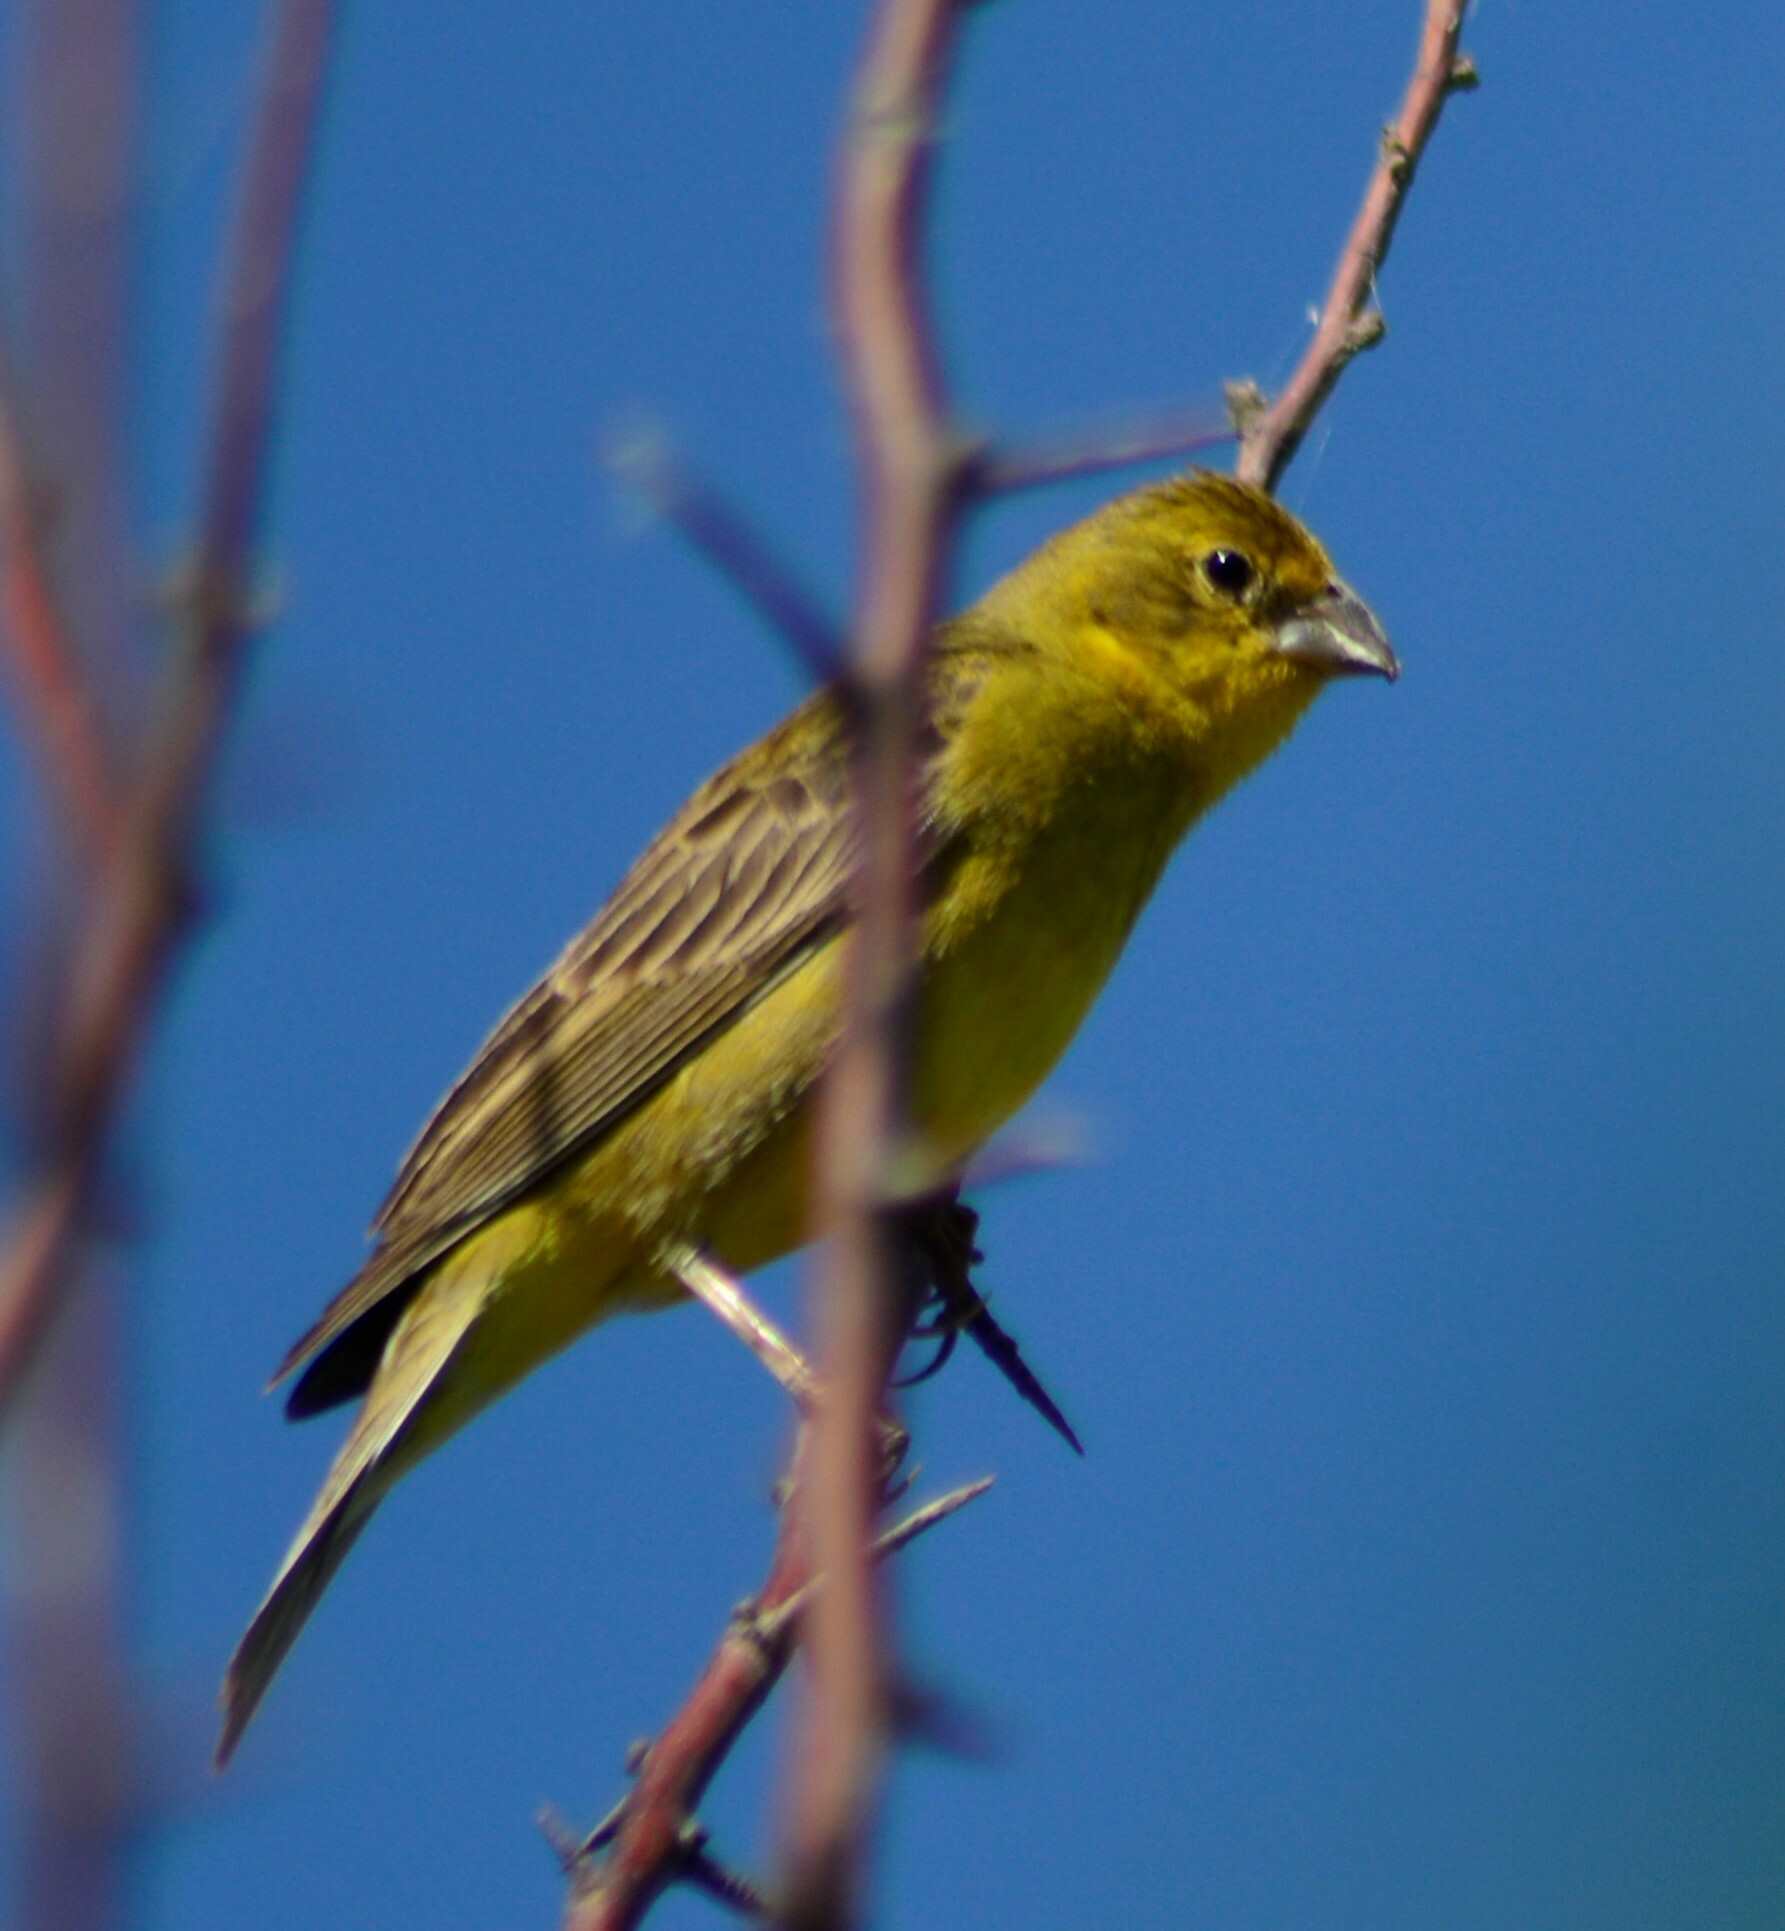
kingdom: Animalia
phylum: Chordata
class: Aves
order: Passeriformes
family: Thraupidae
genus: Sicalis
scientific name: Sicalis luteola
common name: Grassland yellow-finch
